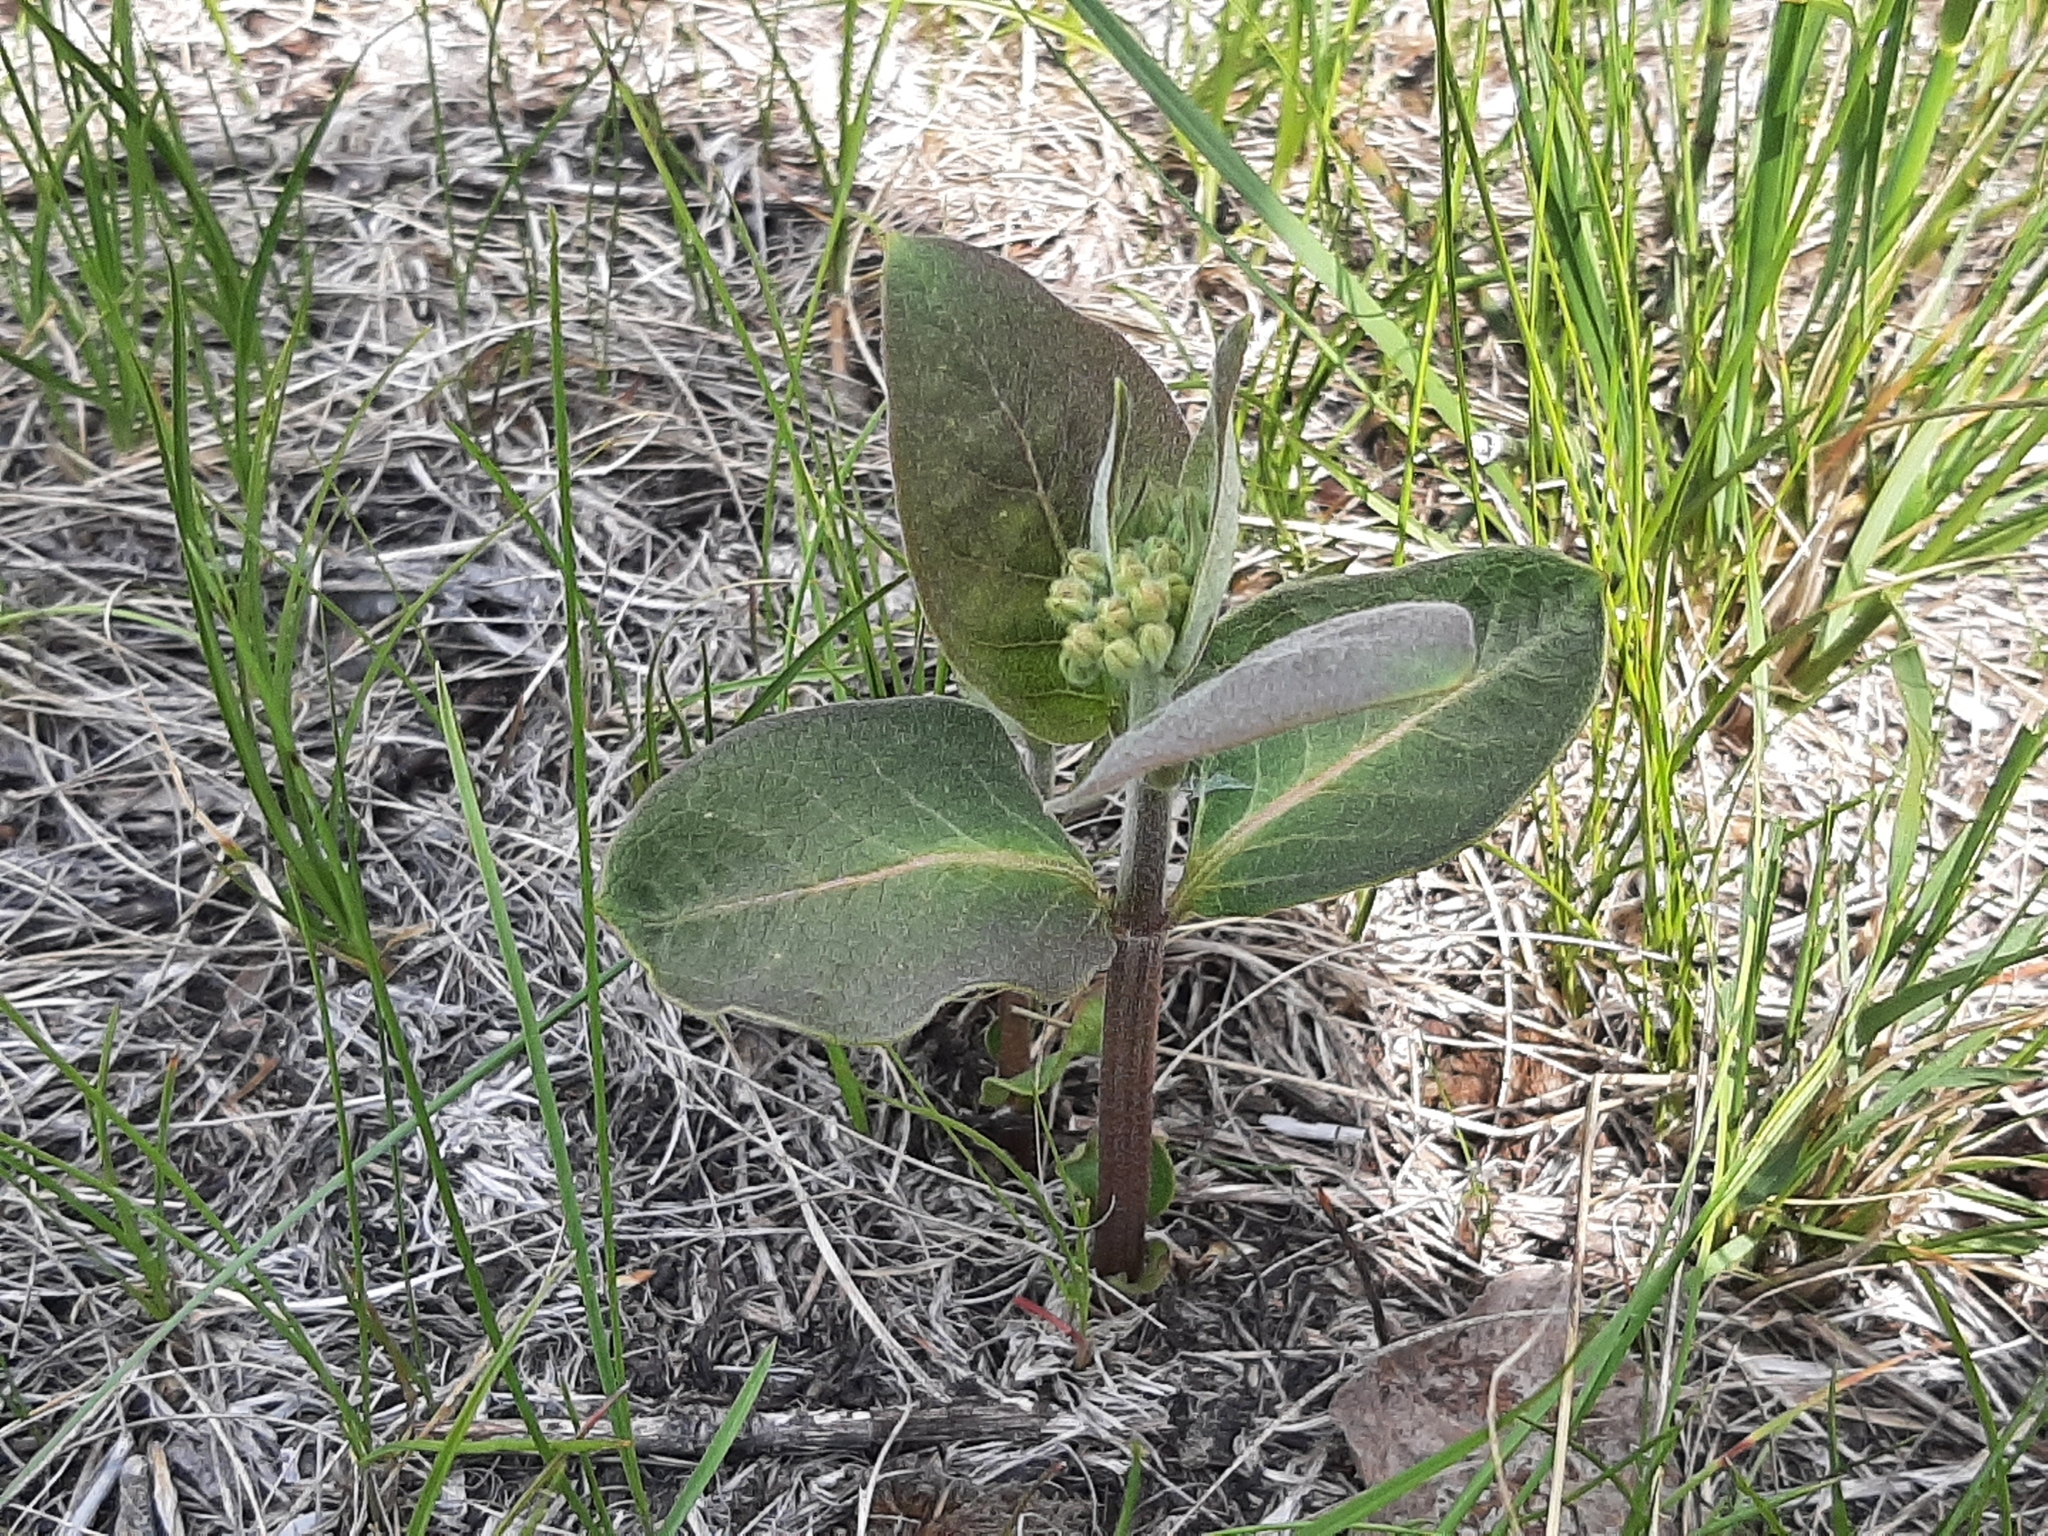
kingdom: Plantae
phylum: Tracheophyta
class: Magnoliopsida
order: Gentianales
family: Apocynaceae
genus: Asclepias
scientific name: Asclepias ovalifolia
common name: Dwarf milkweed
